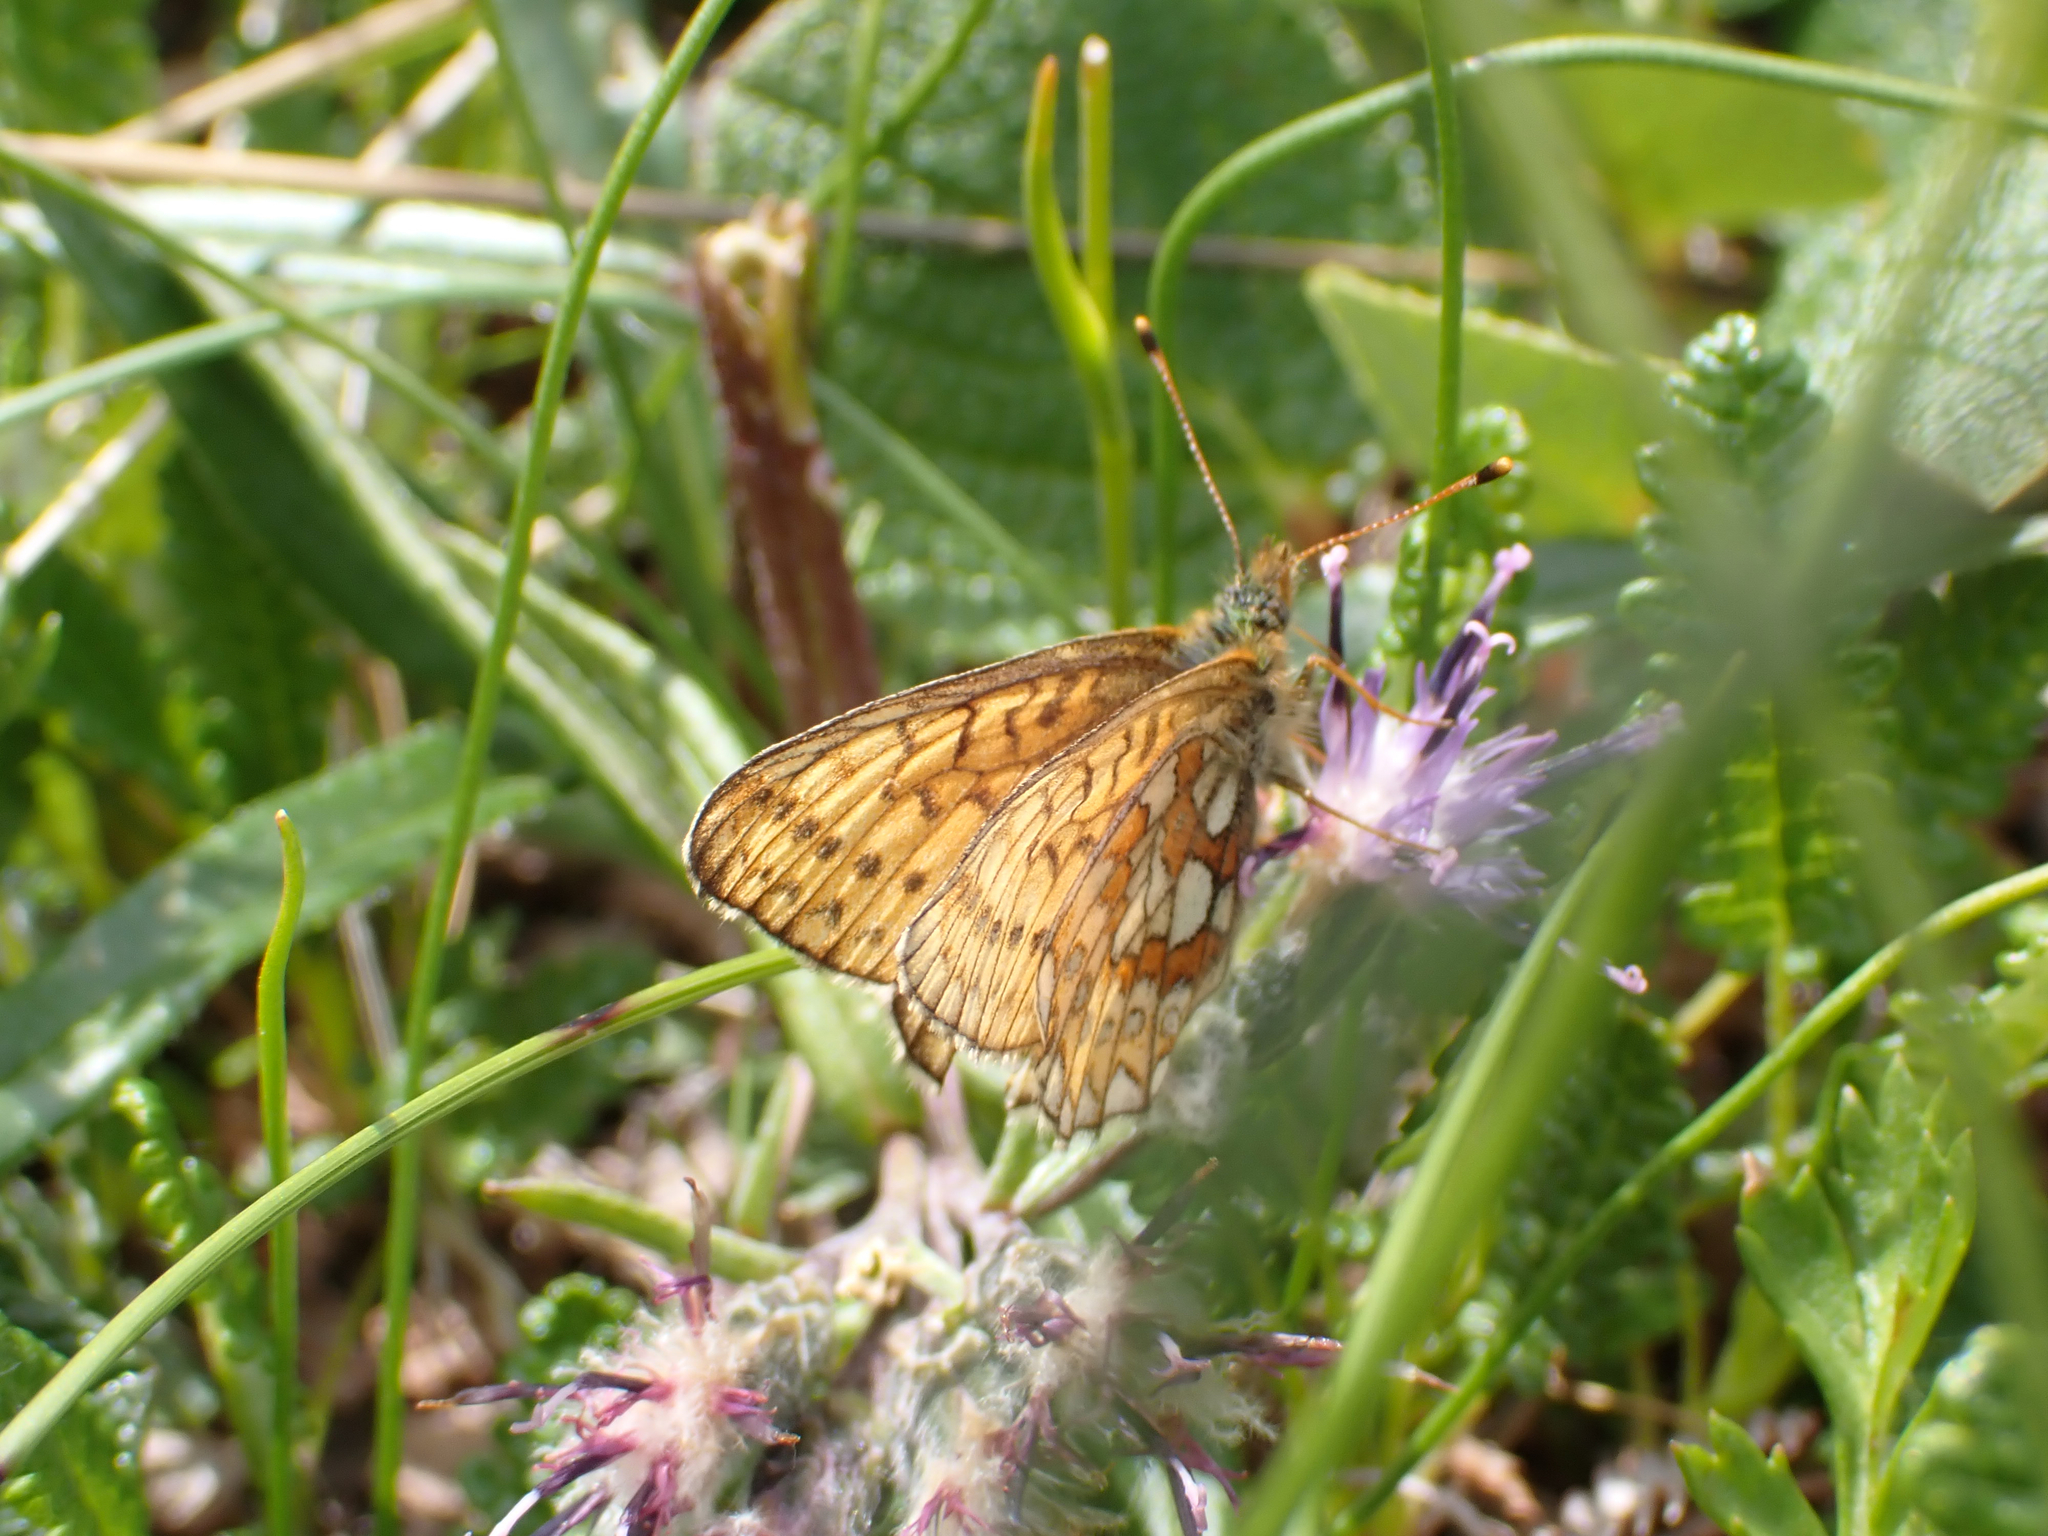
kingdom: Animalia
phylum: Arthropoda
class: Insecta
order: Lepidoptera
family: Nymphalidae
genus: Boloria
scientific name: Boloria eunomia
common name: Bog fritillary
